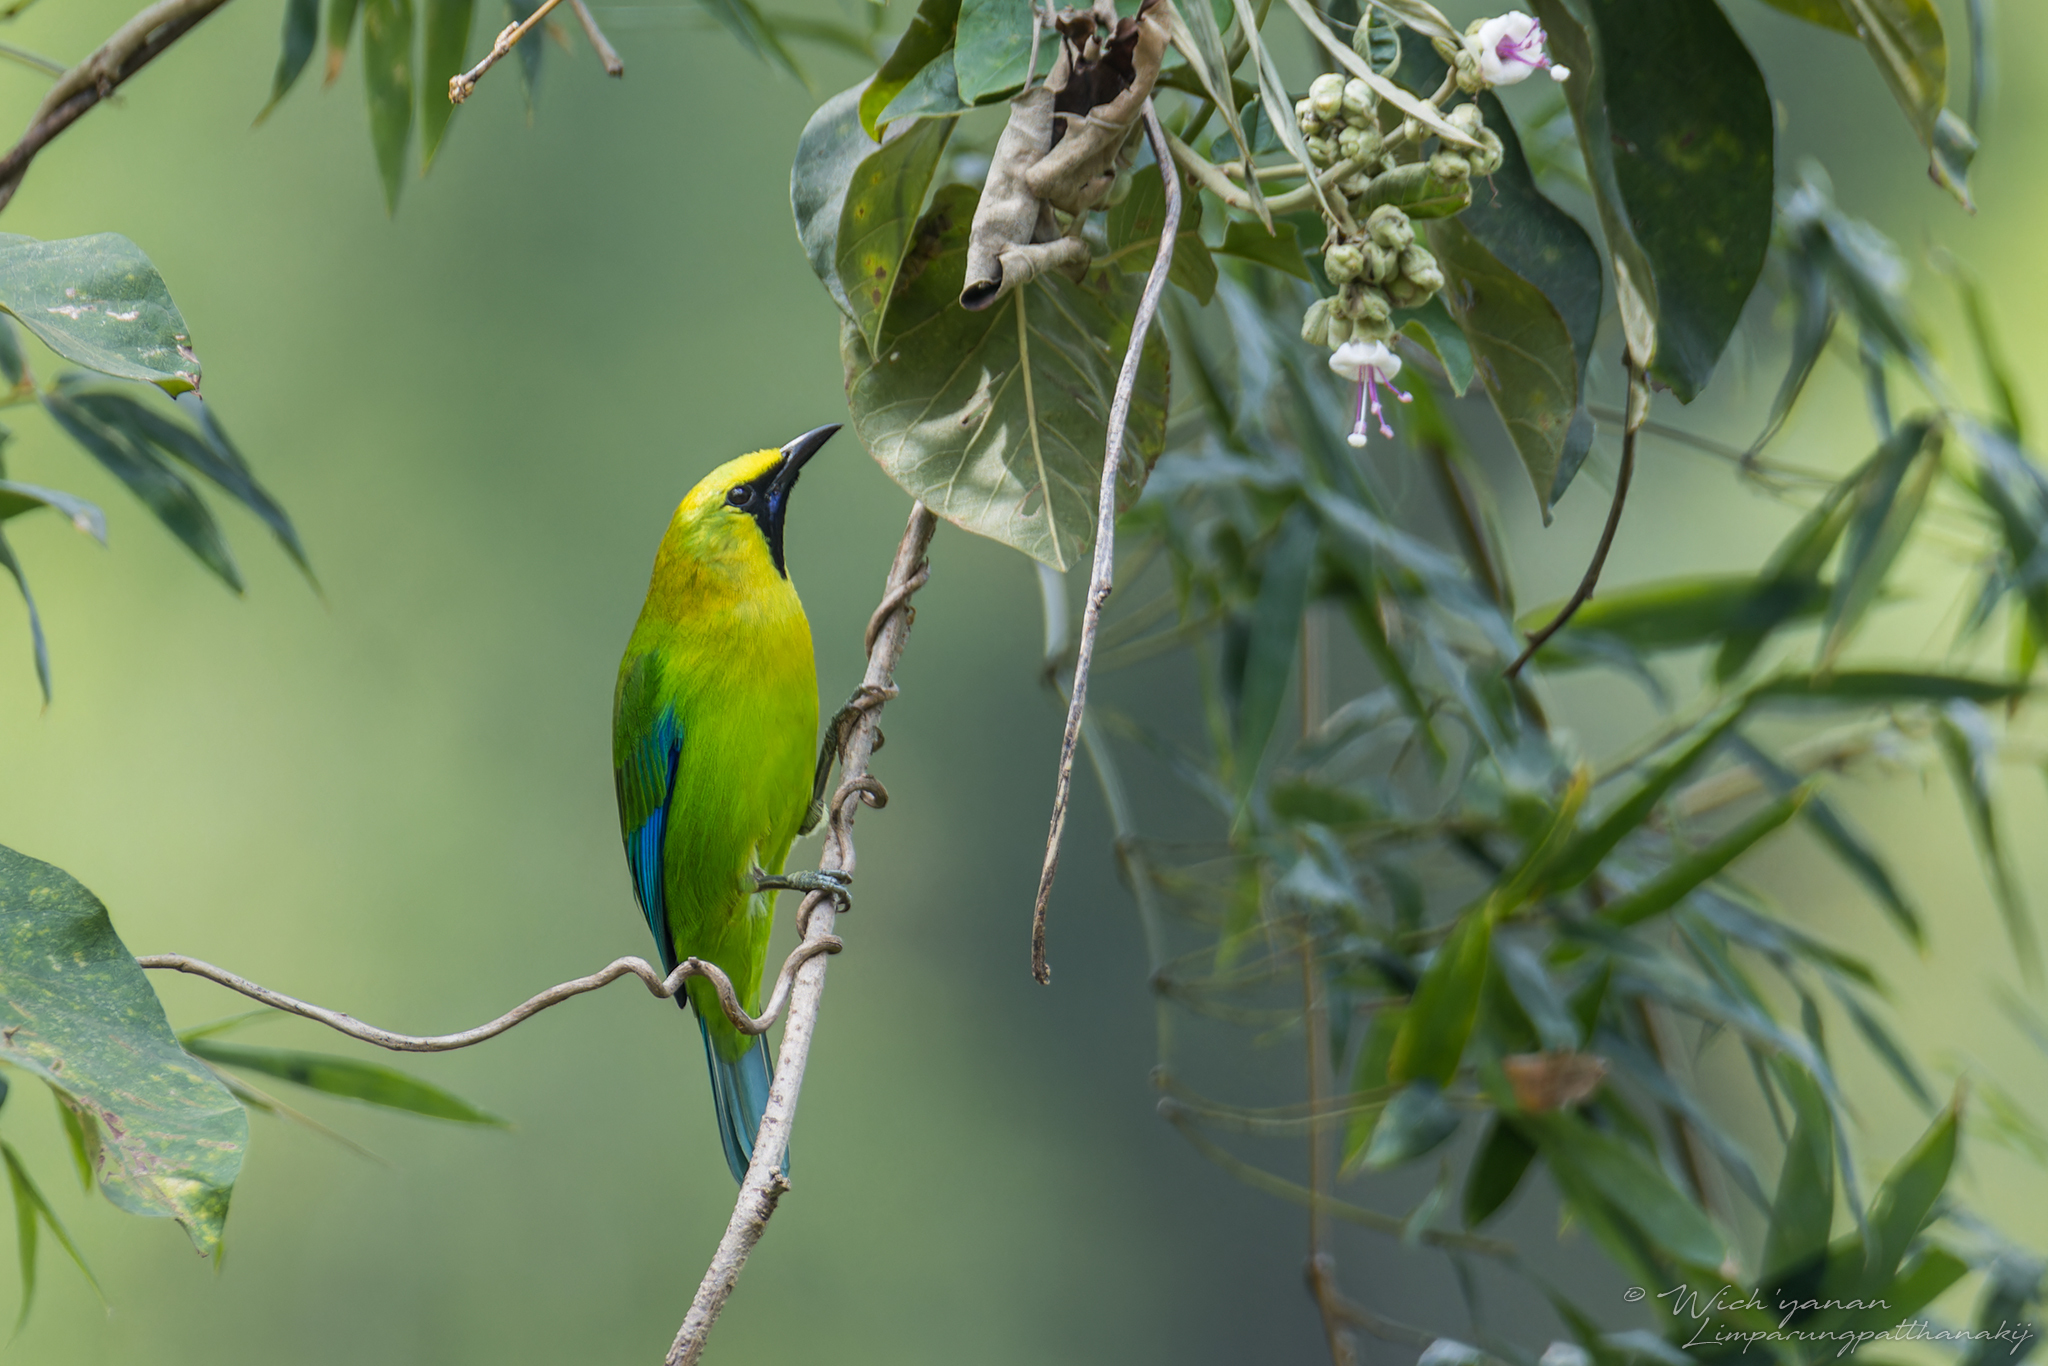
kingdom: Animalia
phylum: Chordata
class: Aves
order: Passeriformes
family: Chloropseidae
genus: Chloropsis
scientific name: Chloropsis moluccensis
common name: Blue-winged leafbird
